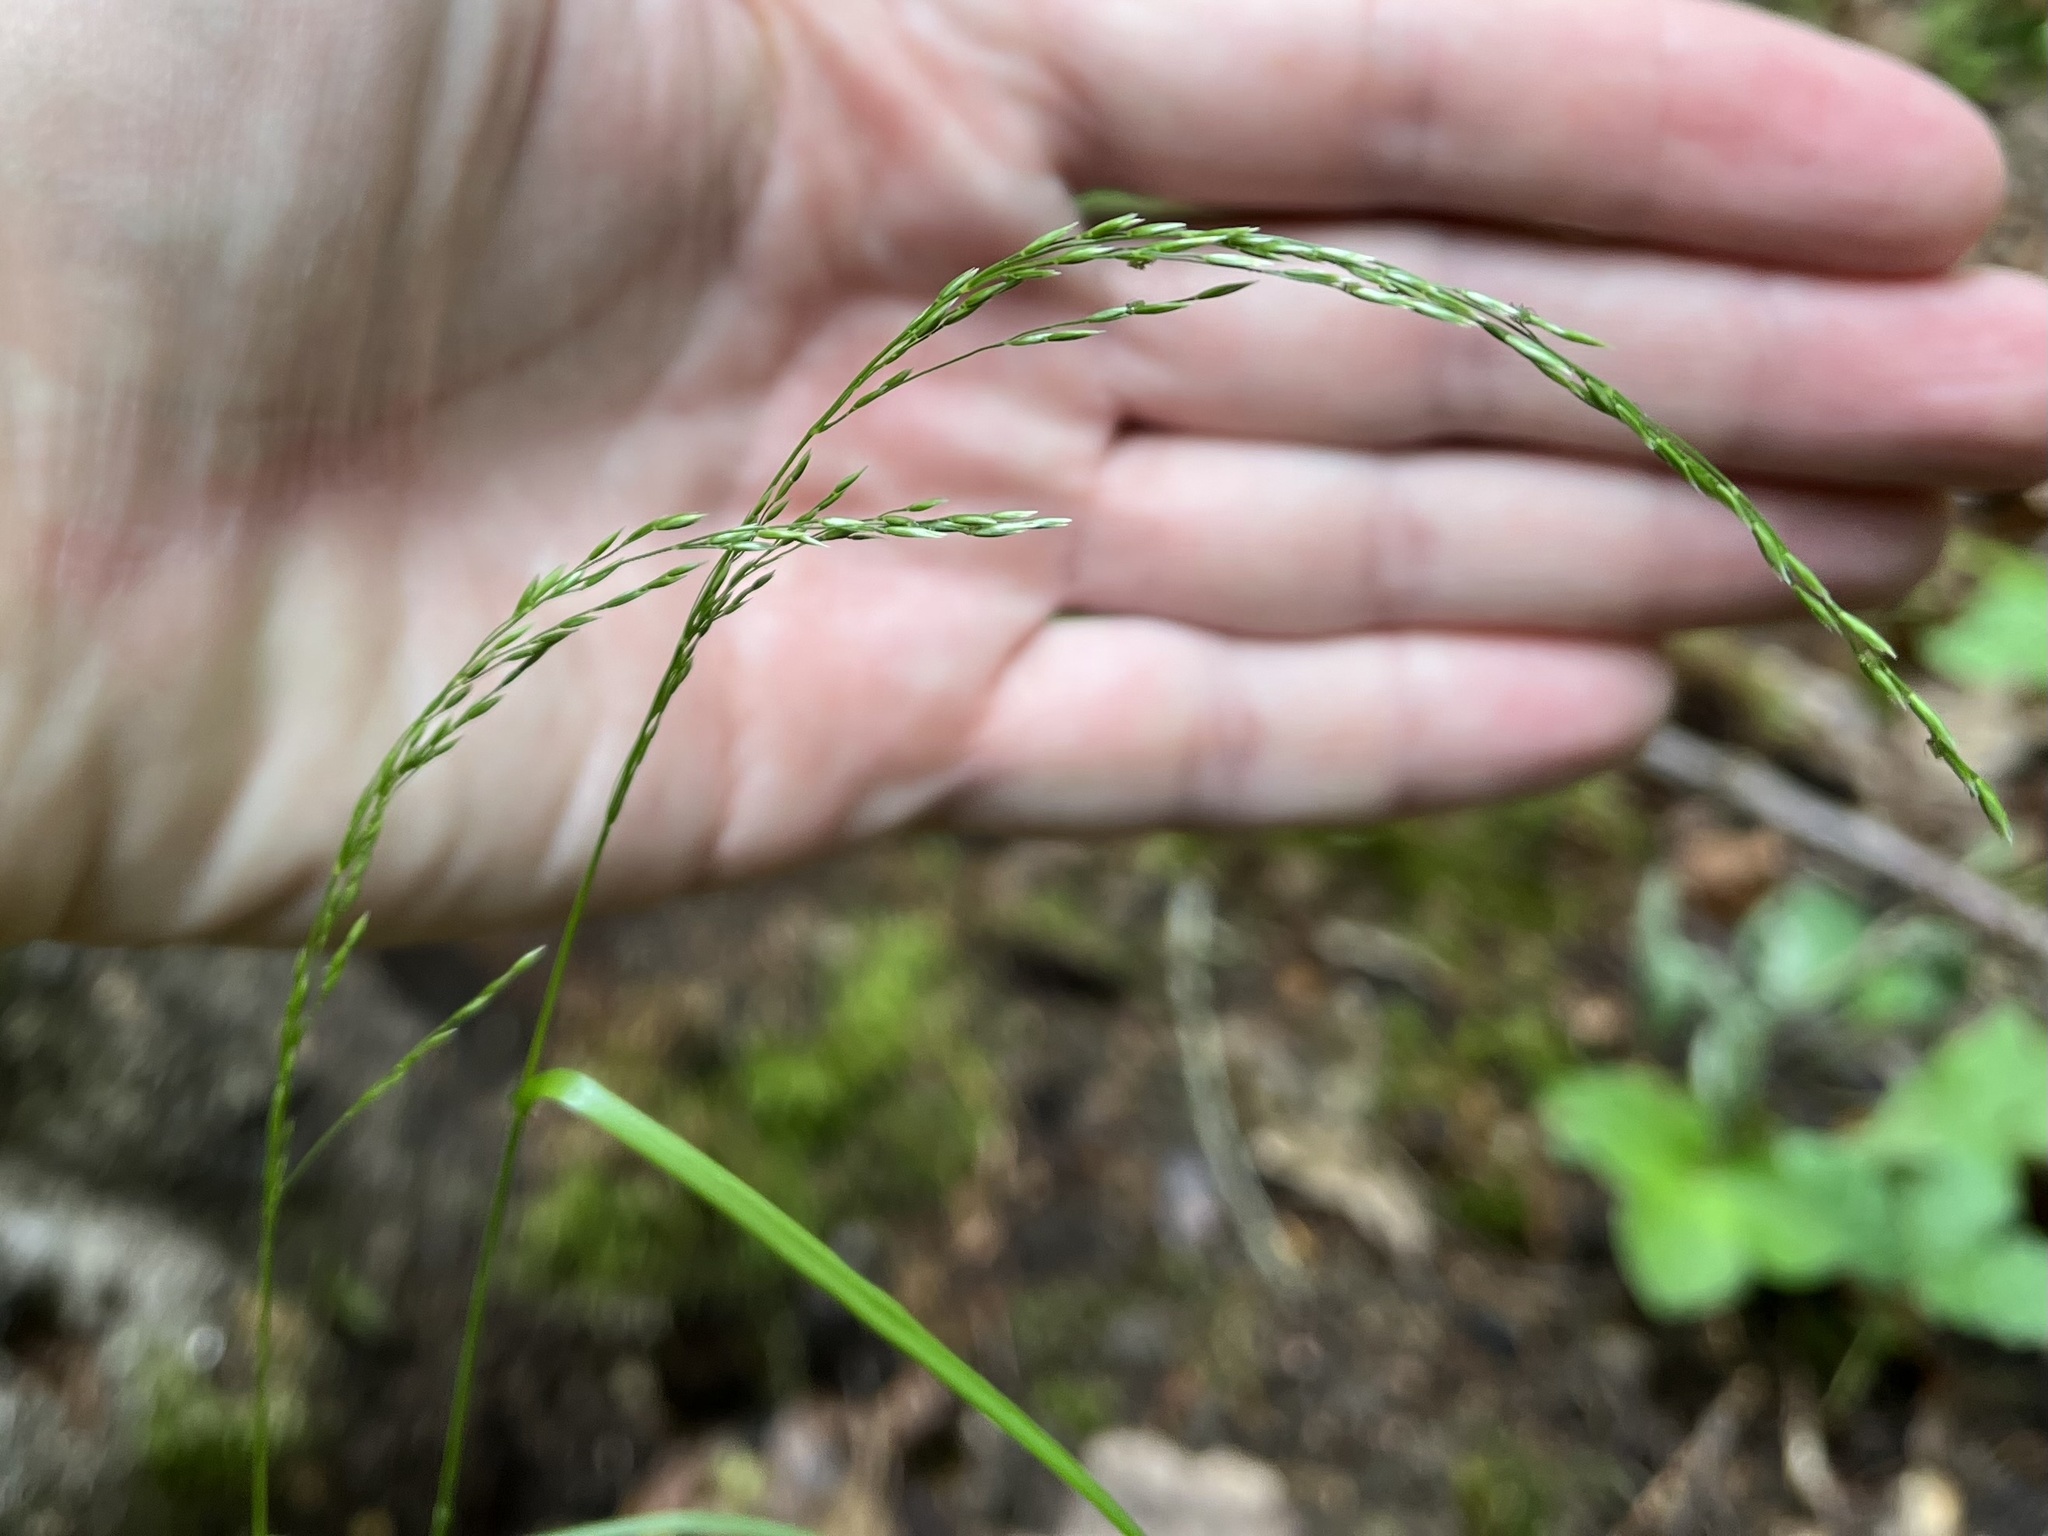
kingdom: Plantae
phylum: Tracheophyta
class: Liliopsida
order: Poales
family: Poaceae
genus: Poa
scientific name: Poa nemoralis
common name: Wood bluegrass
